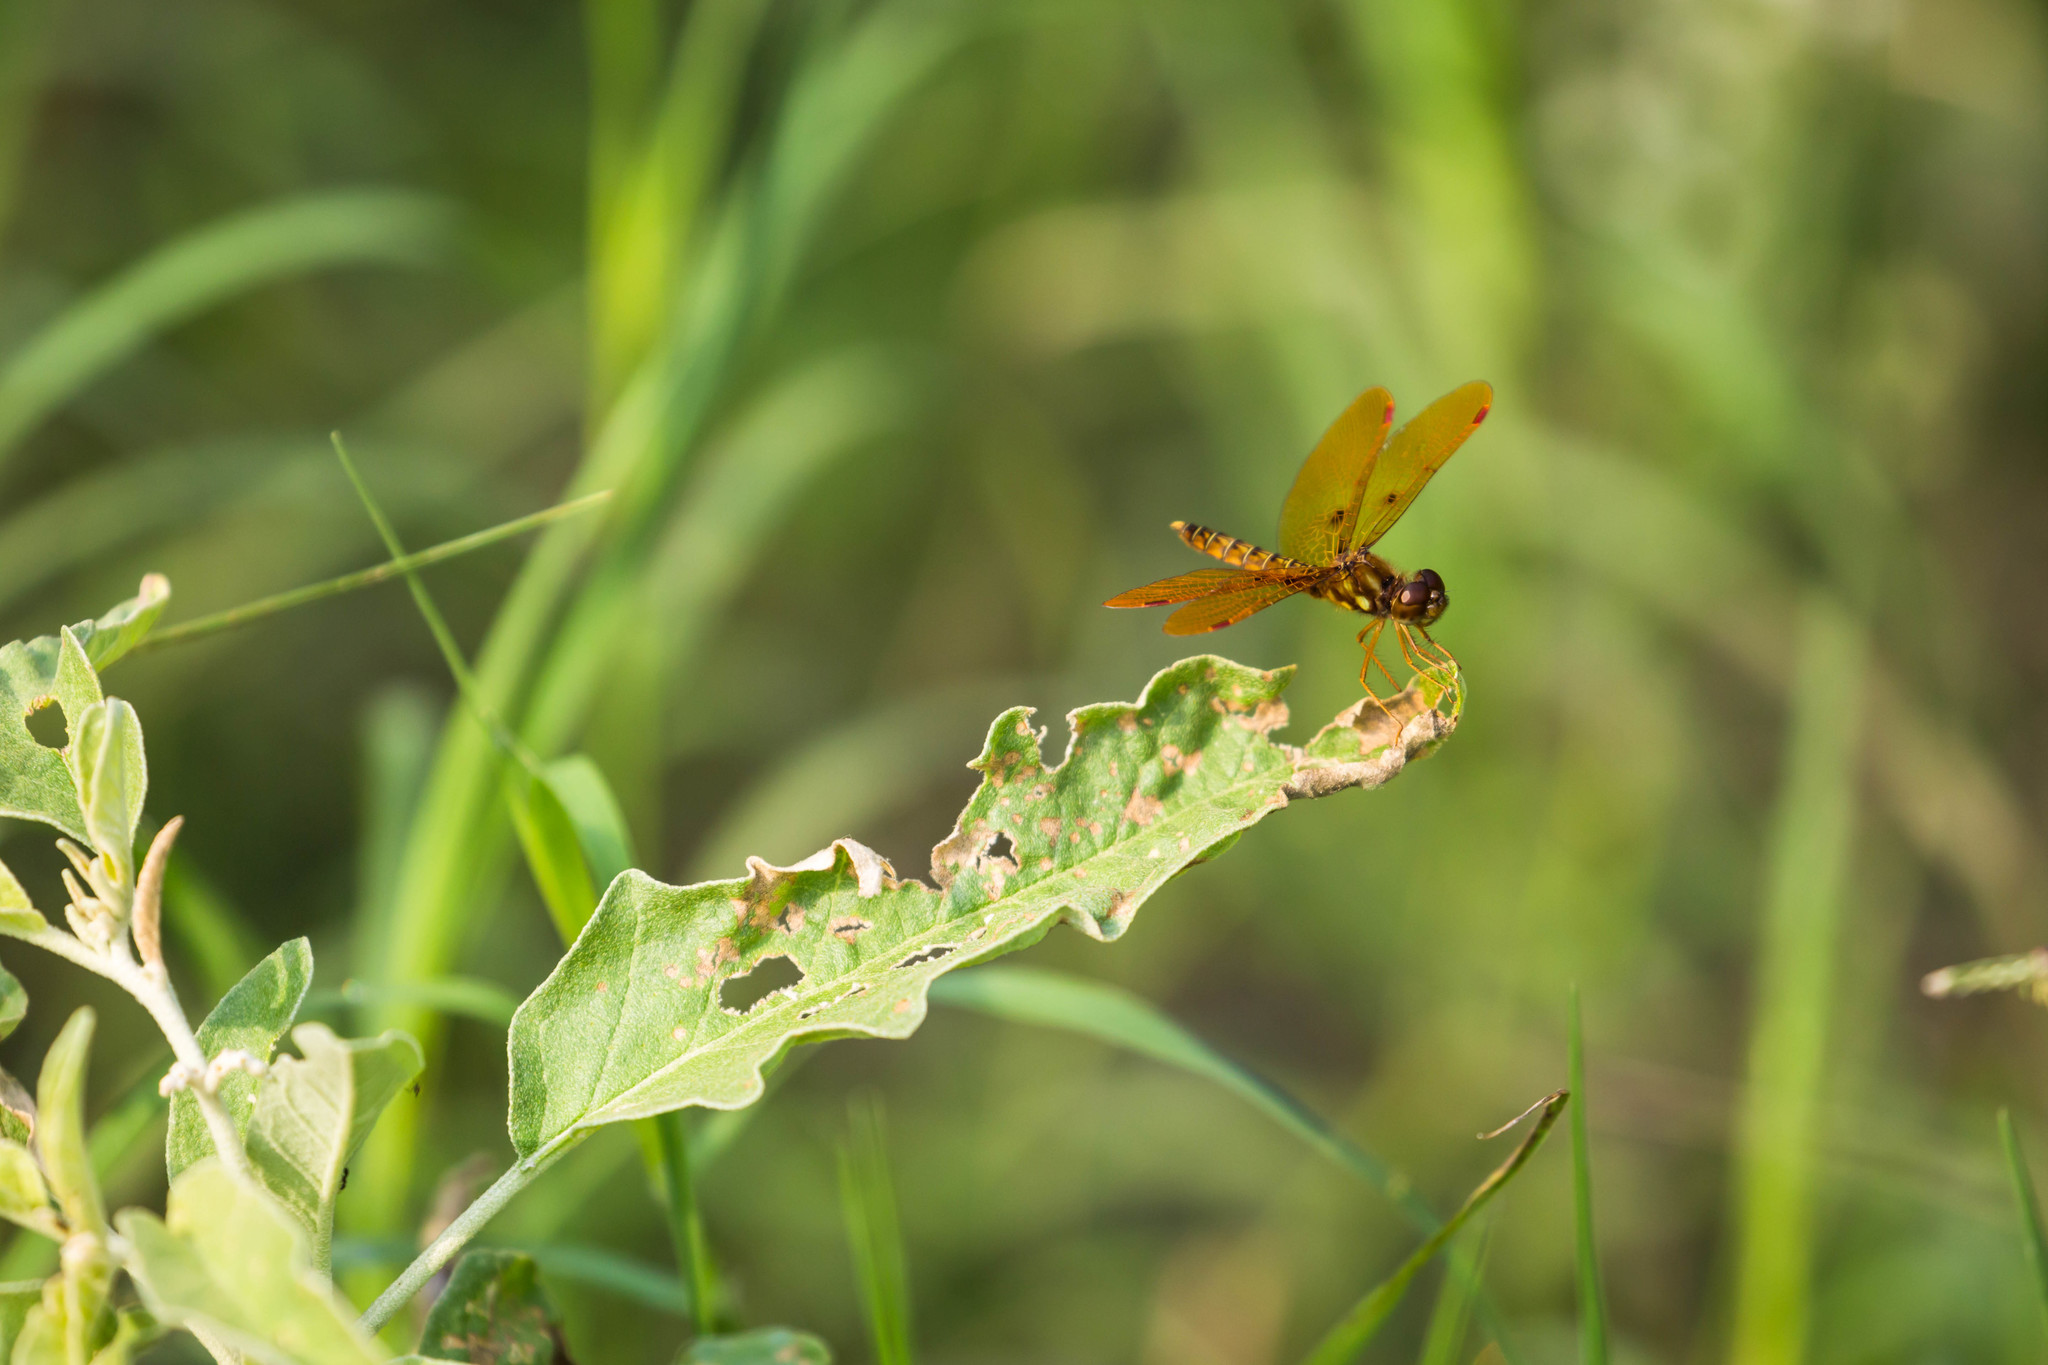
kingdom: Animalia
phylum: Arthropoda
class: Insecta
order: Odonata
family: Libellulidae
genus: Perithemis
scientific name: Perithemis tenera
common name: Eastern amberwing
